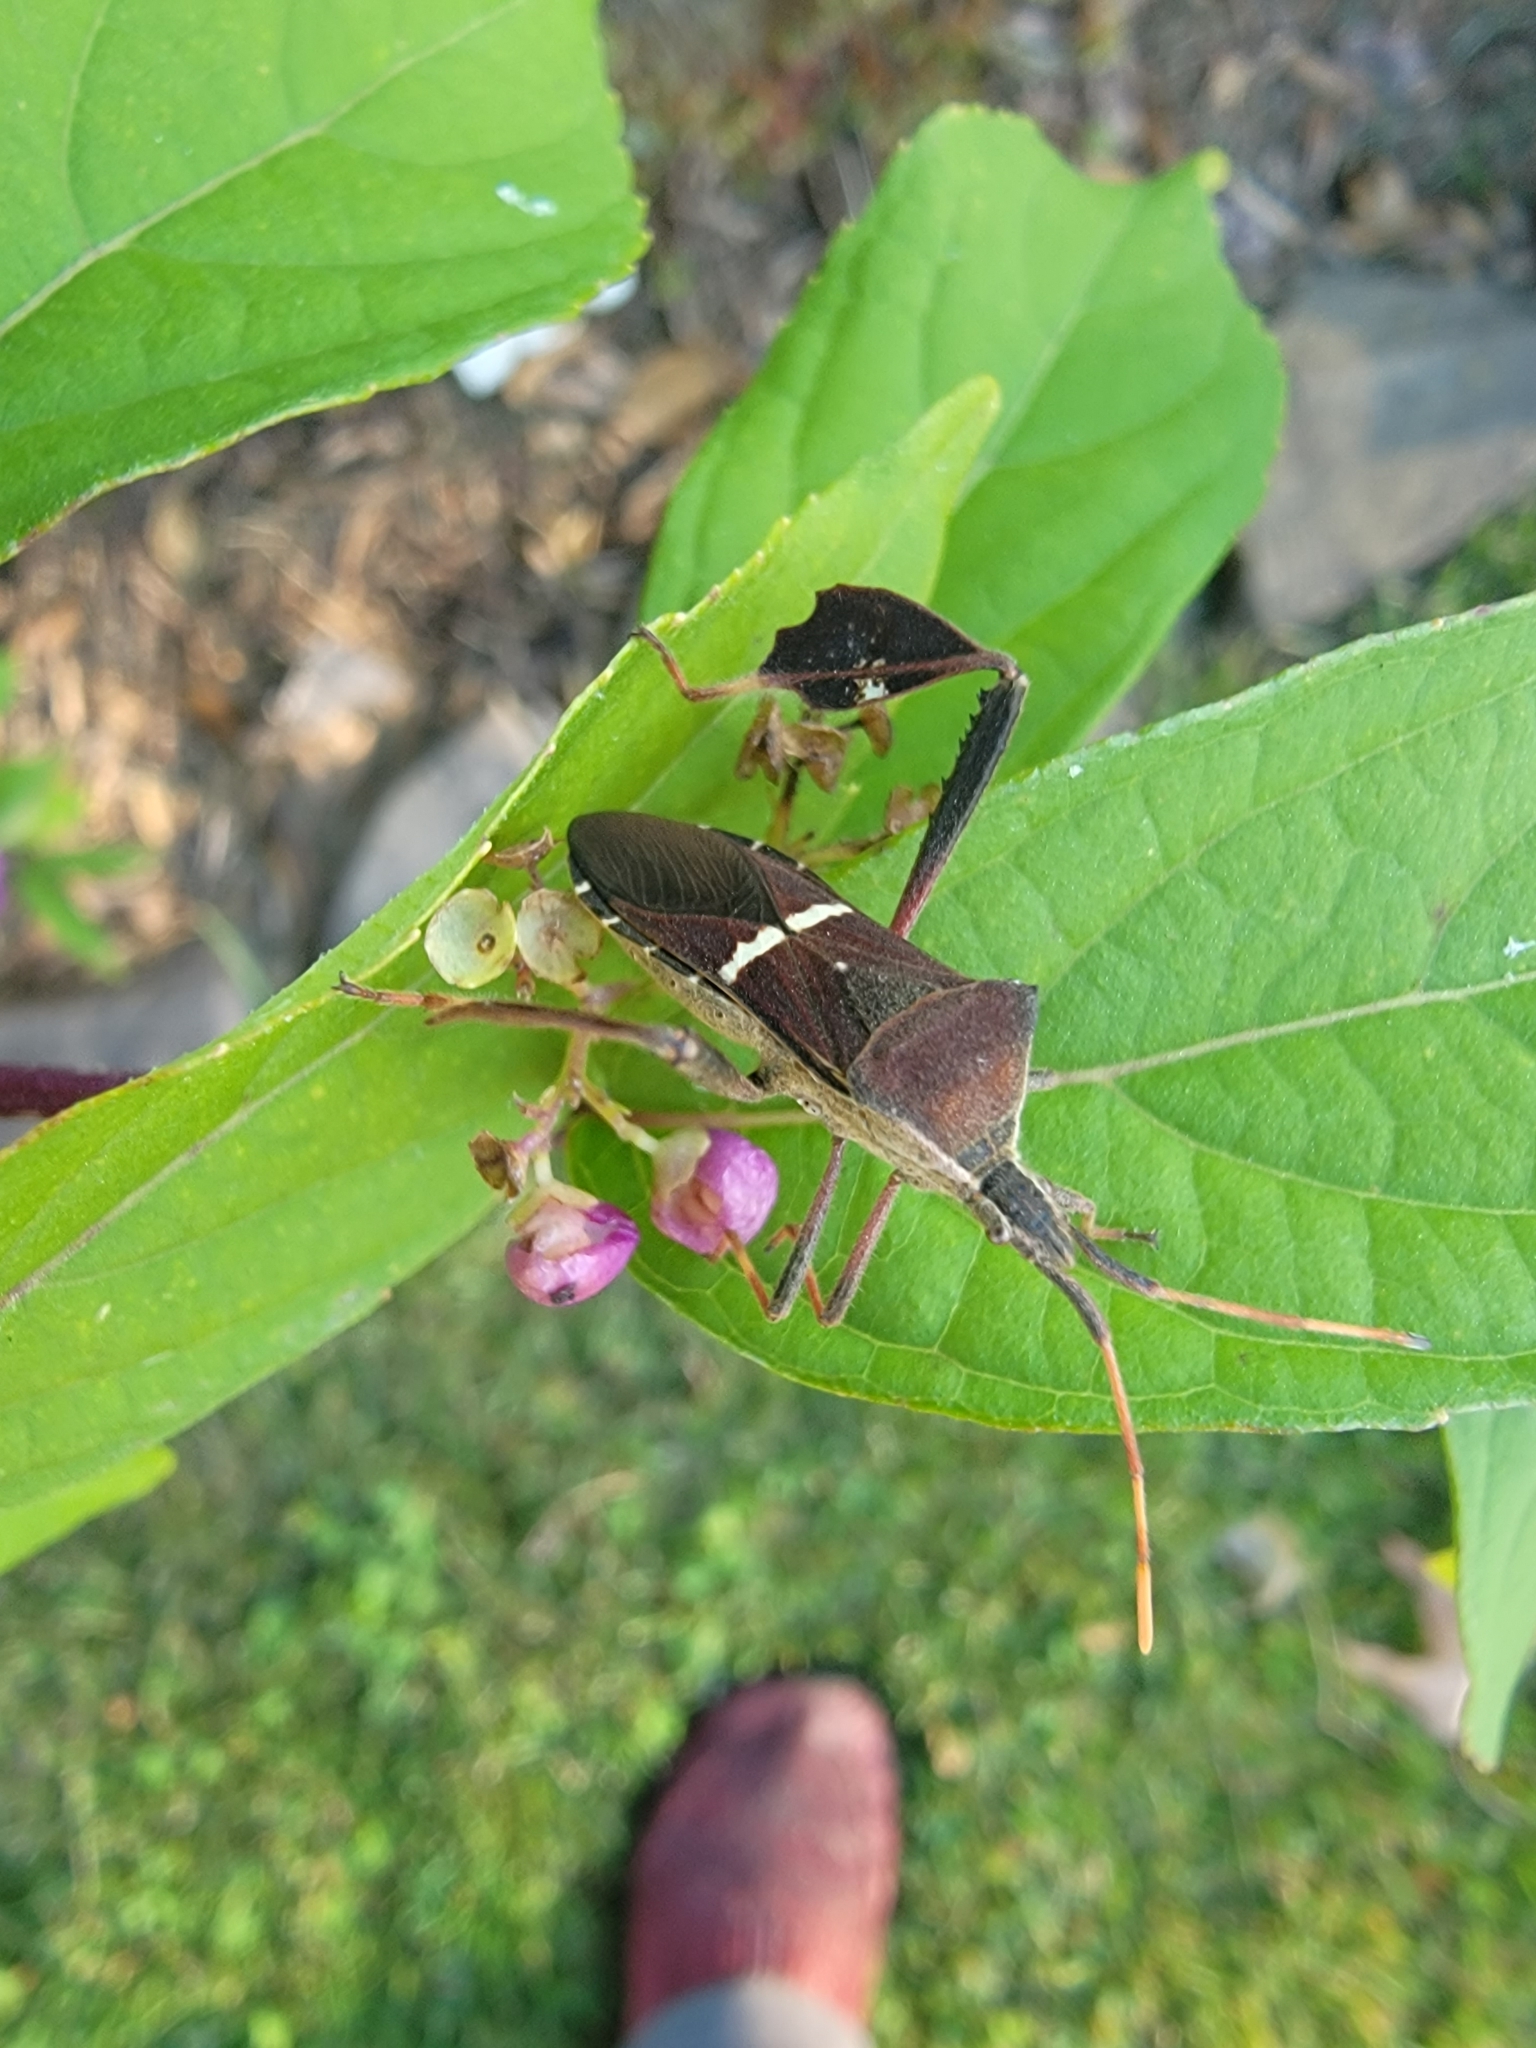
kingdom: Animalia
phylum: Arthropoda
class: Insecta
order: Hemiptera
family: Coreidae
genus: Leptoglossus
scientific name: Leptoglossus phyllopus
